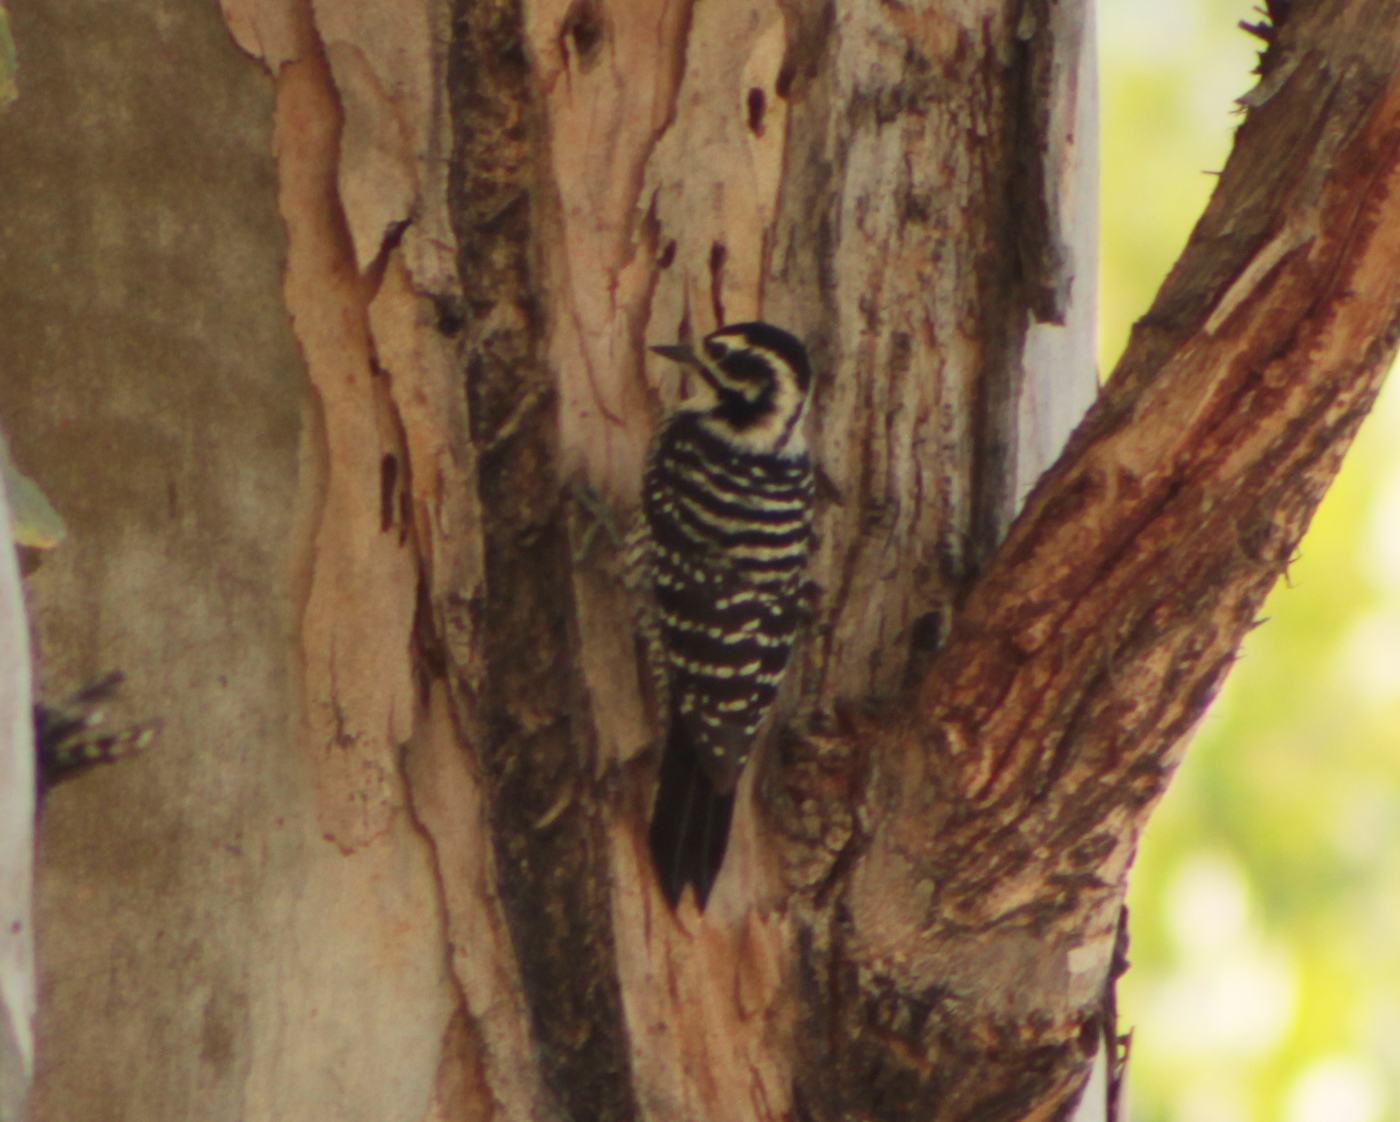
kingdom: Animalia
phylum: Chordata
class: Aves
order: Piciformes
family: Picidae
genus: Dryobates
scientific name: Dryobates nuttallii
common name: Nuttall's woodpecker
